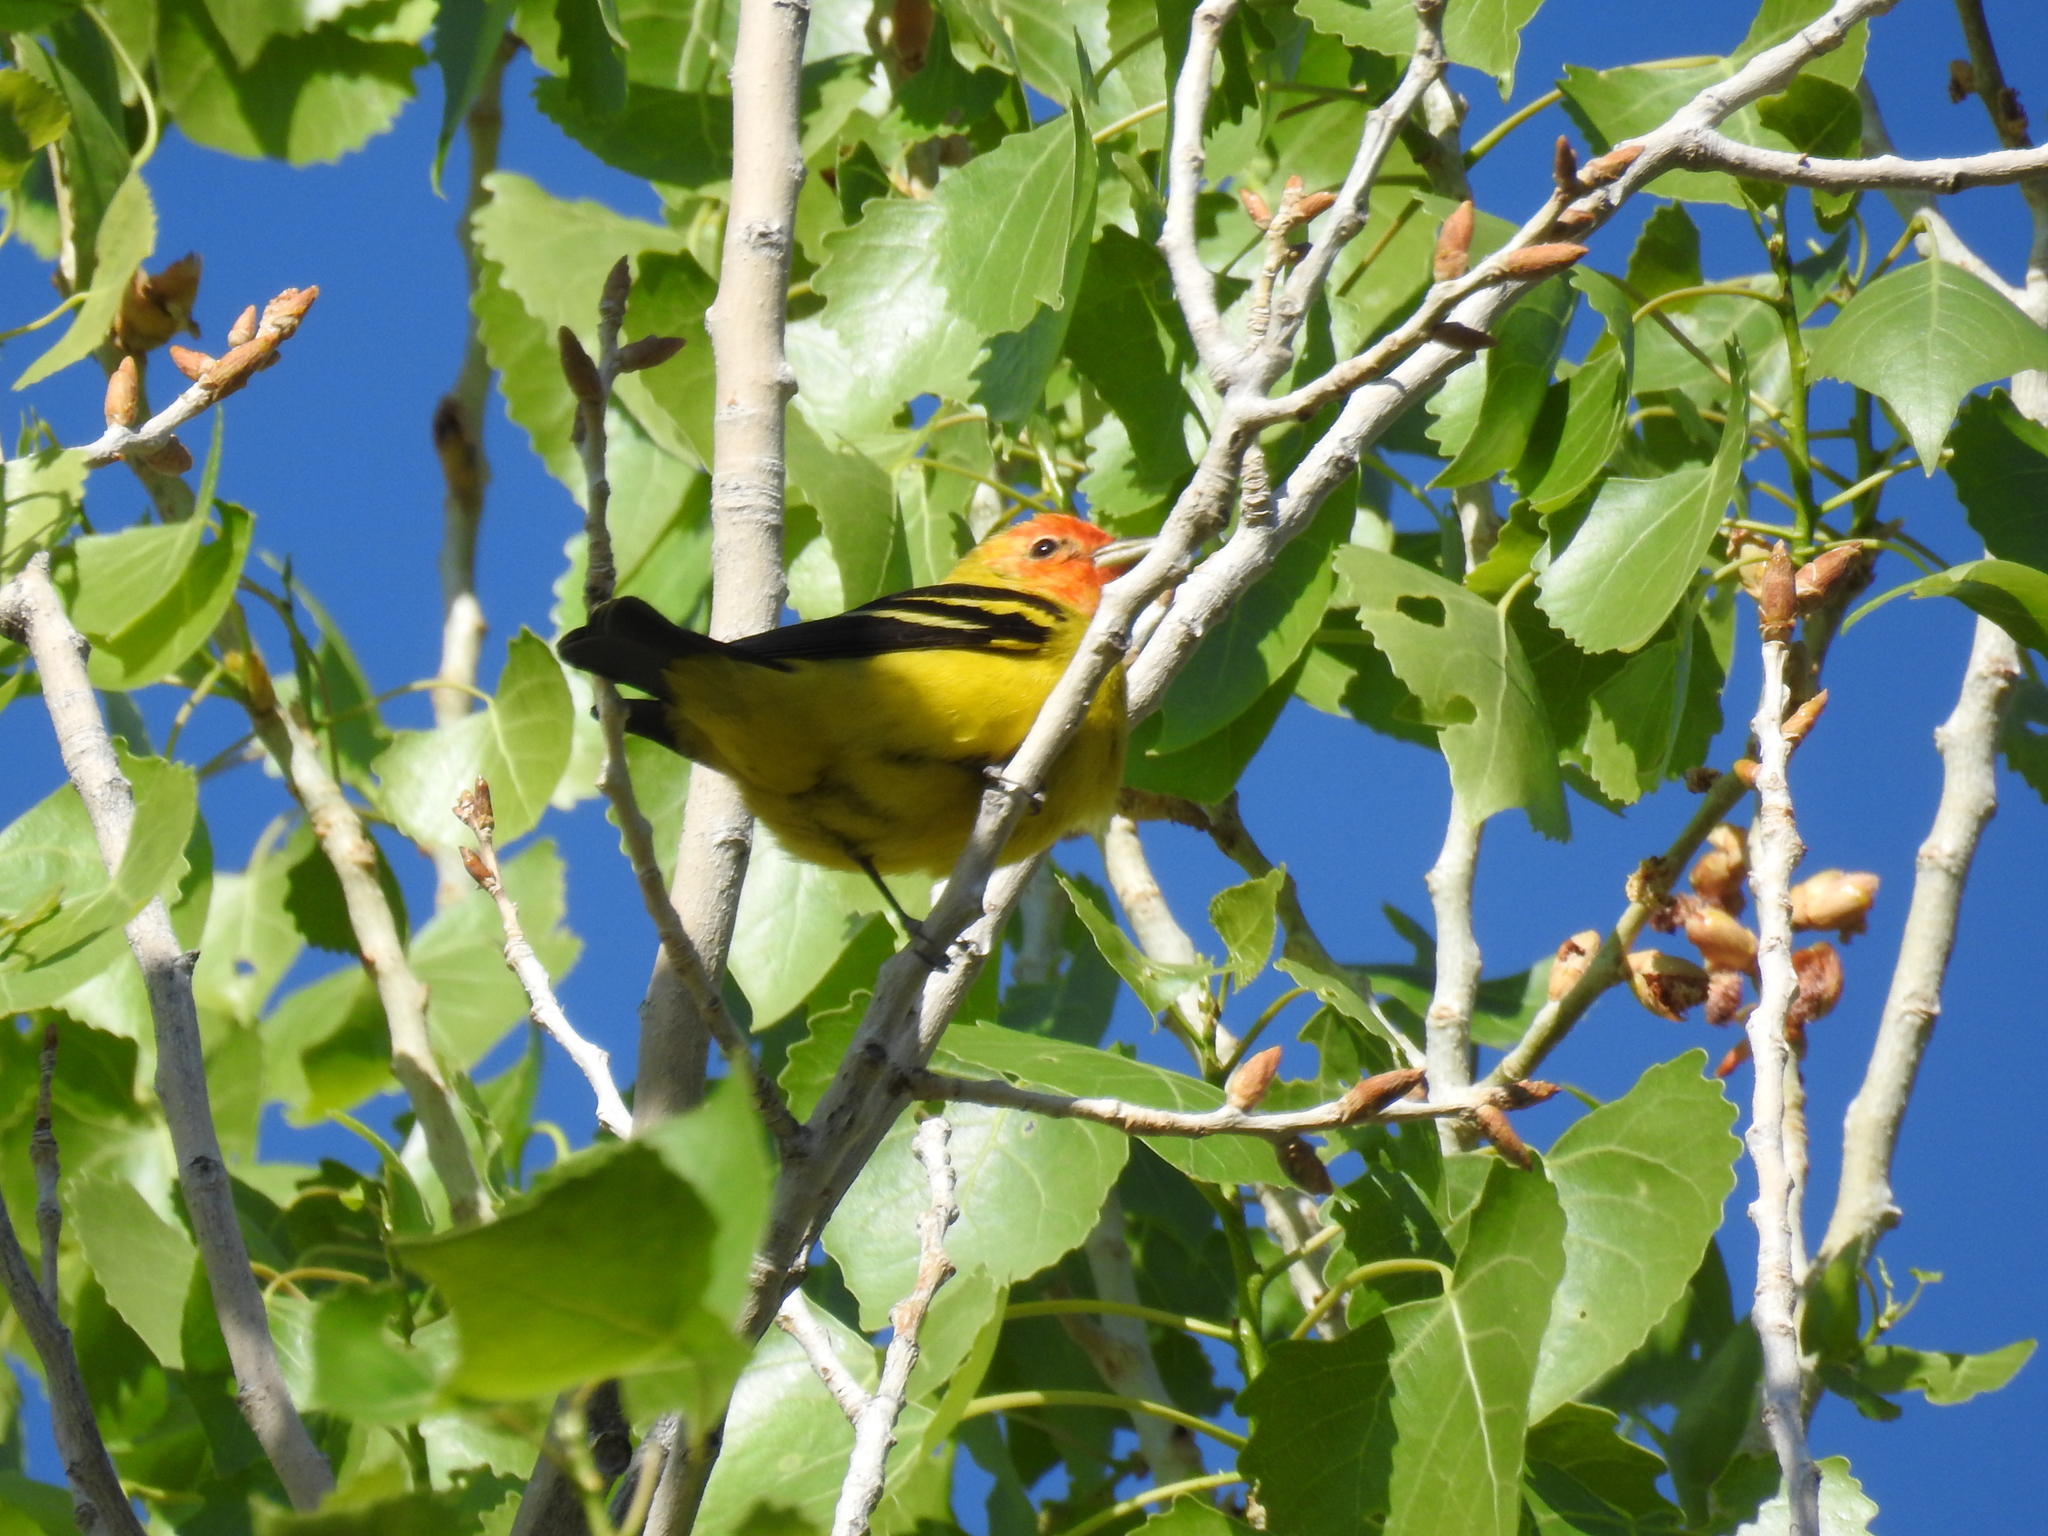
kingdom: Animalia
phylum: Chordata
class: Aves
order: Passeriformes
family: Cardinalidae
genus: Piranga
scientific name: Piranga ludoviciana
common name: Western tanager
